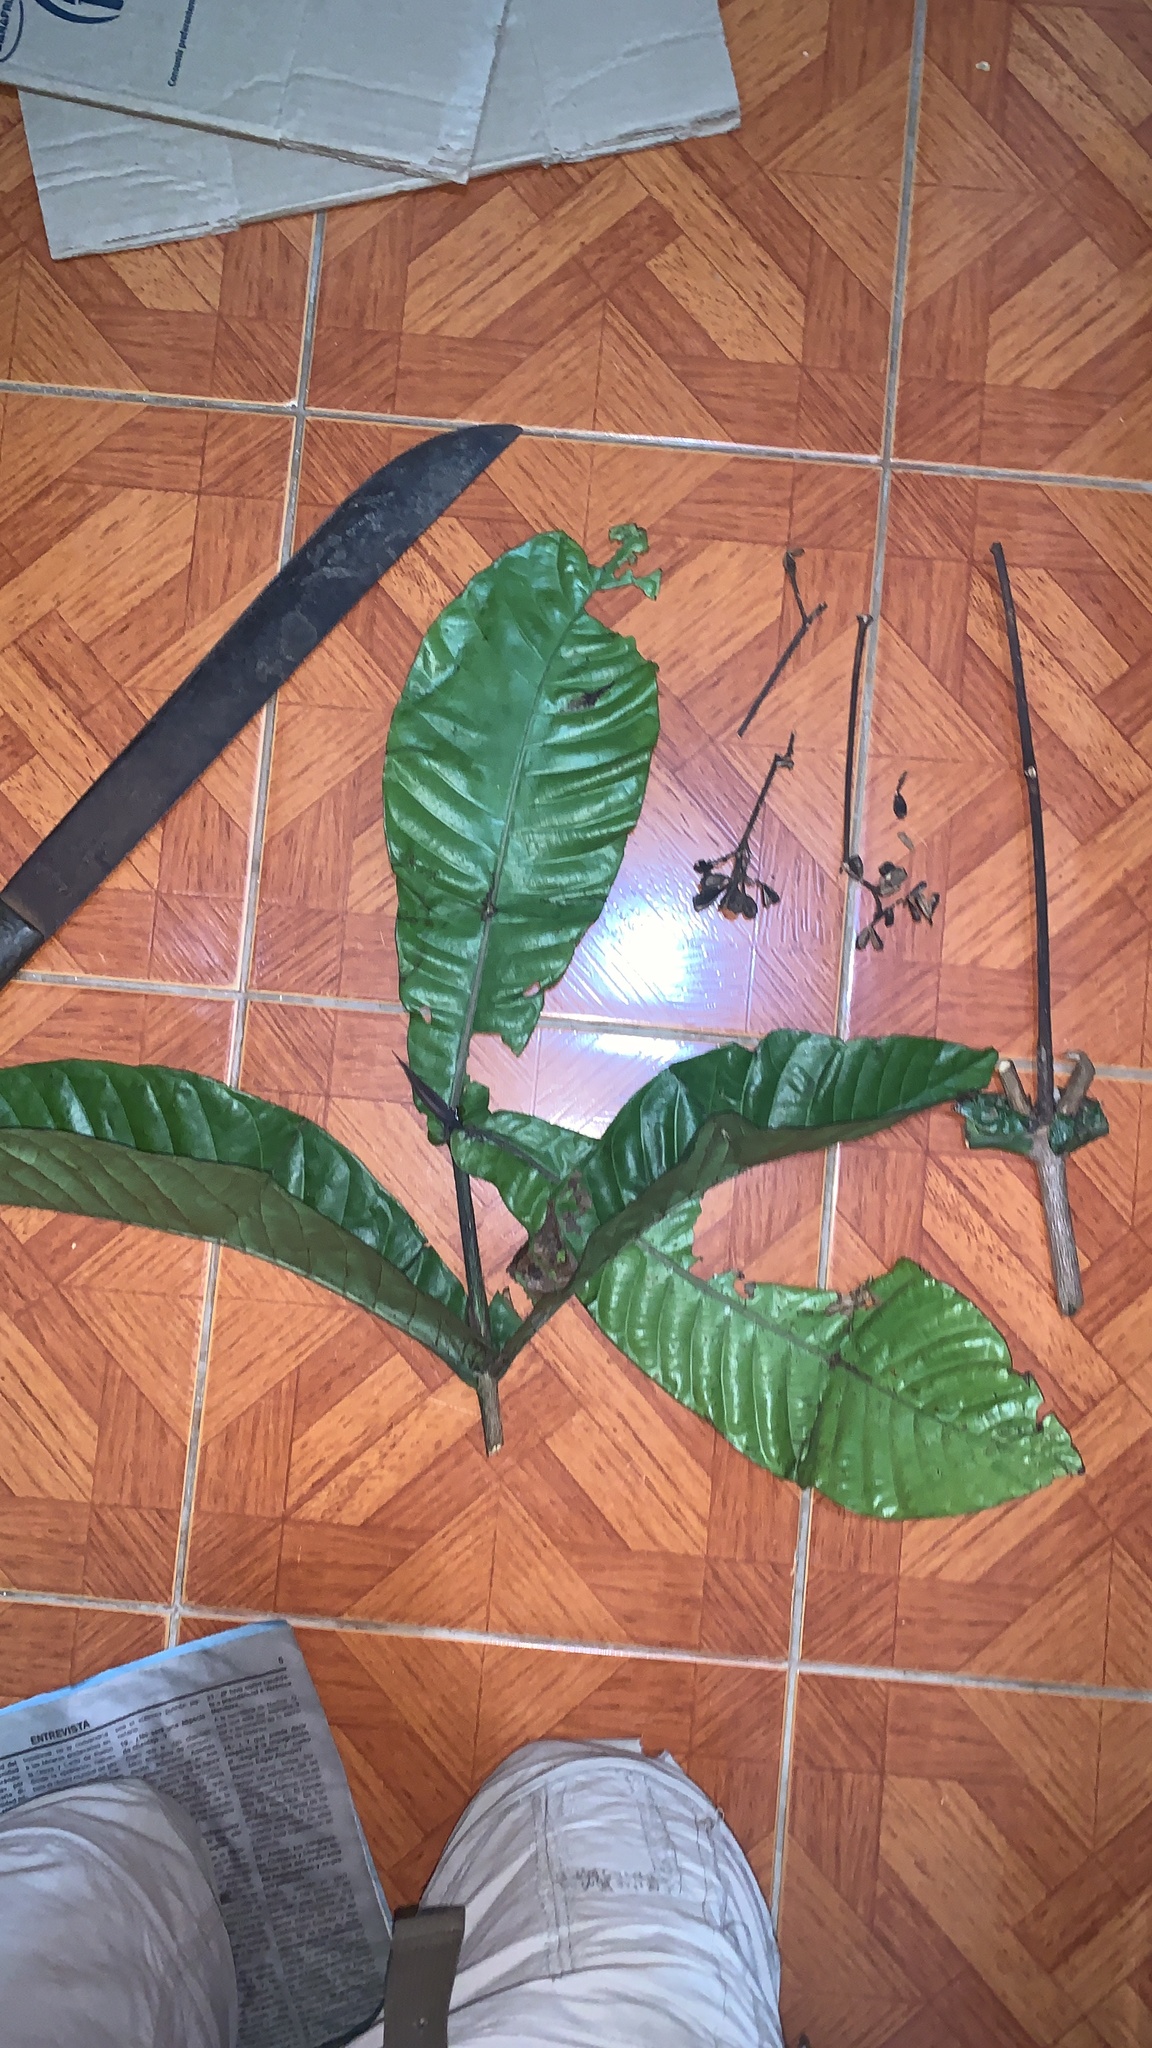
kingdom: Plantae
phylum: Tracheophyta
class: Magnoliopsida
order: Gentianales
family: Rubiaceae
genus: Condaminea
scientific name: Condaminea corymbosa
